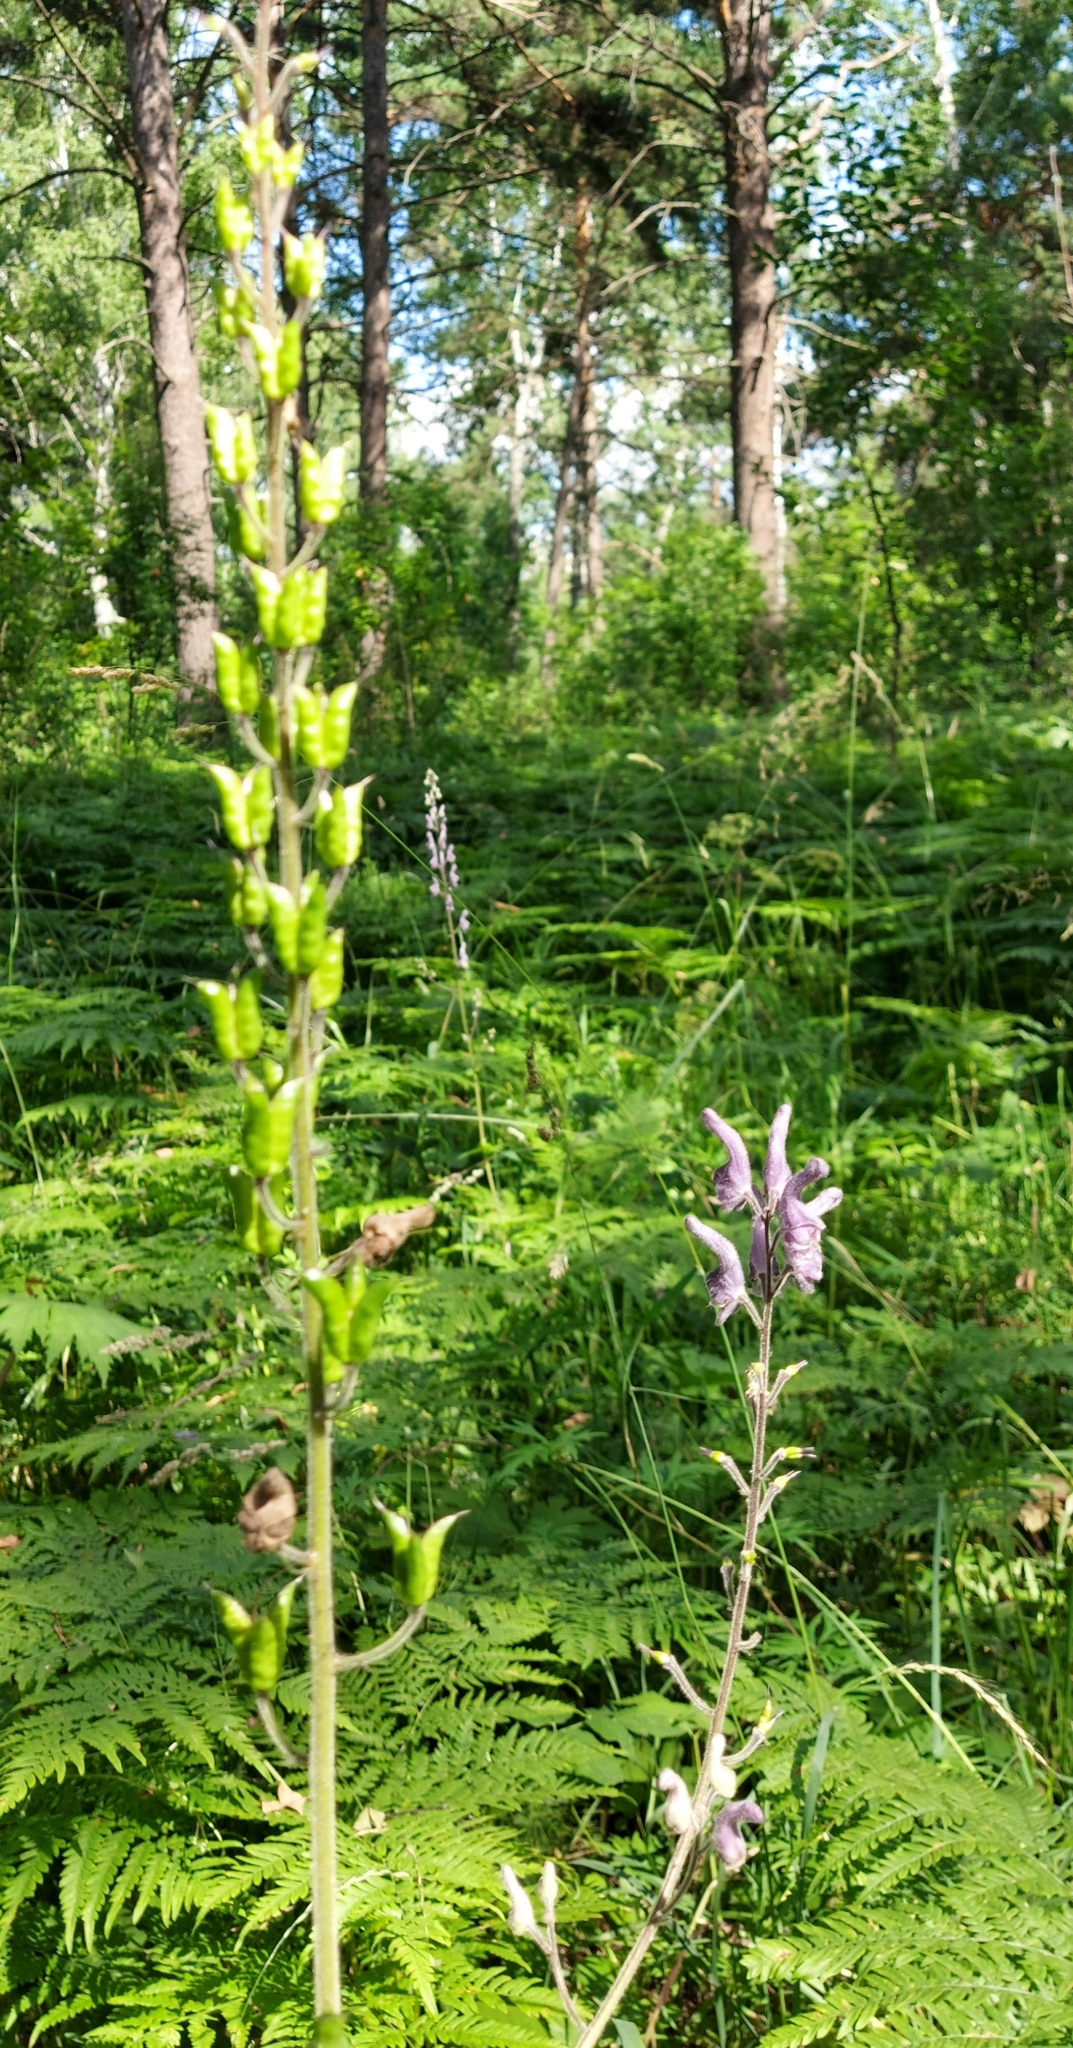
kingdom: Plantae
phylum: Tracheophyta
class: Magnoliopsida
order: Ranunculales
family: Ranunculaceae
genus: Aconitum
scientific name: Aconitum septentrionale
